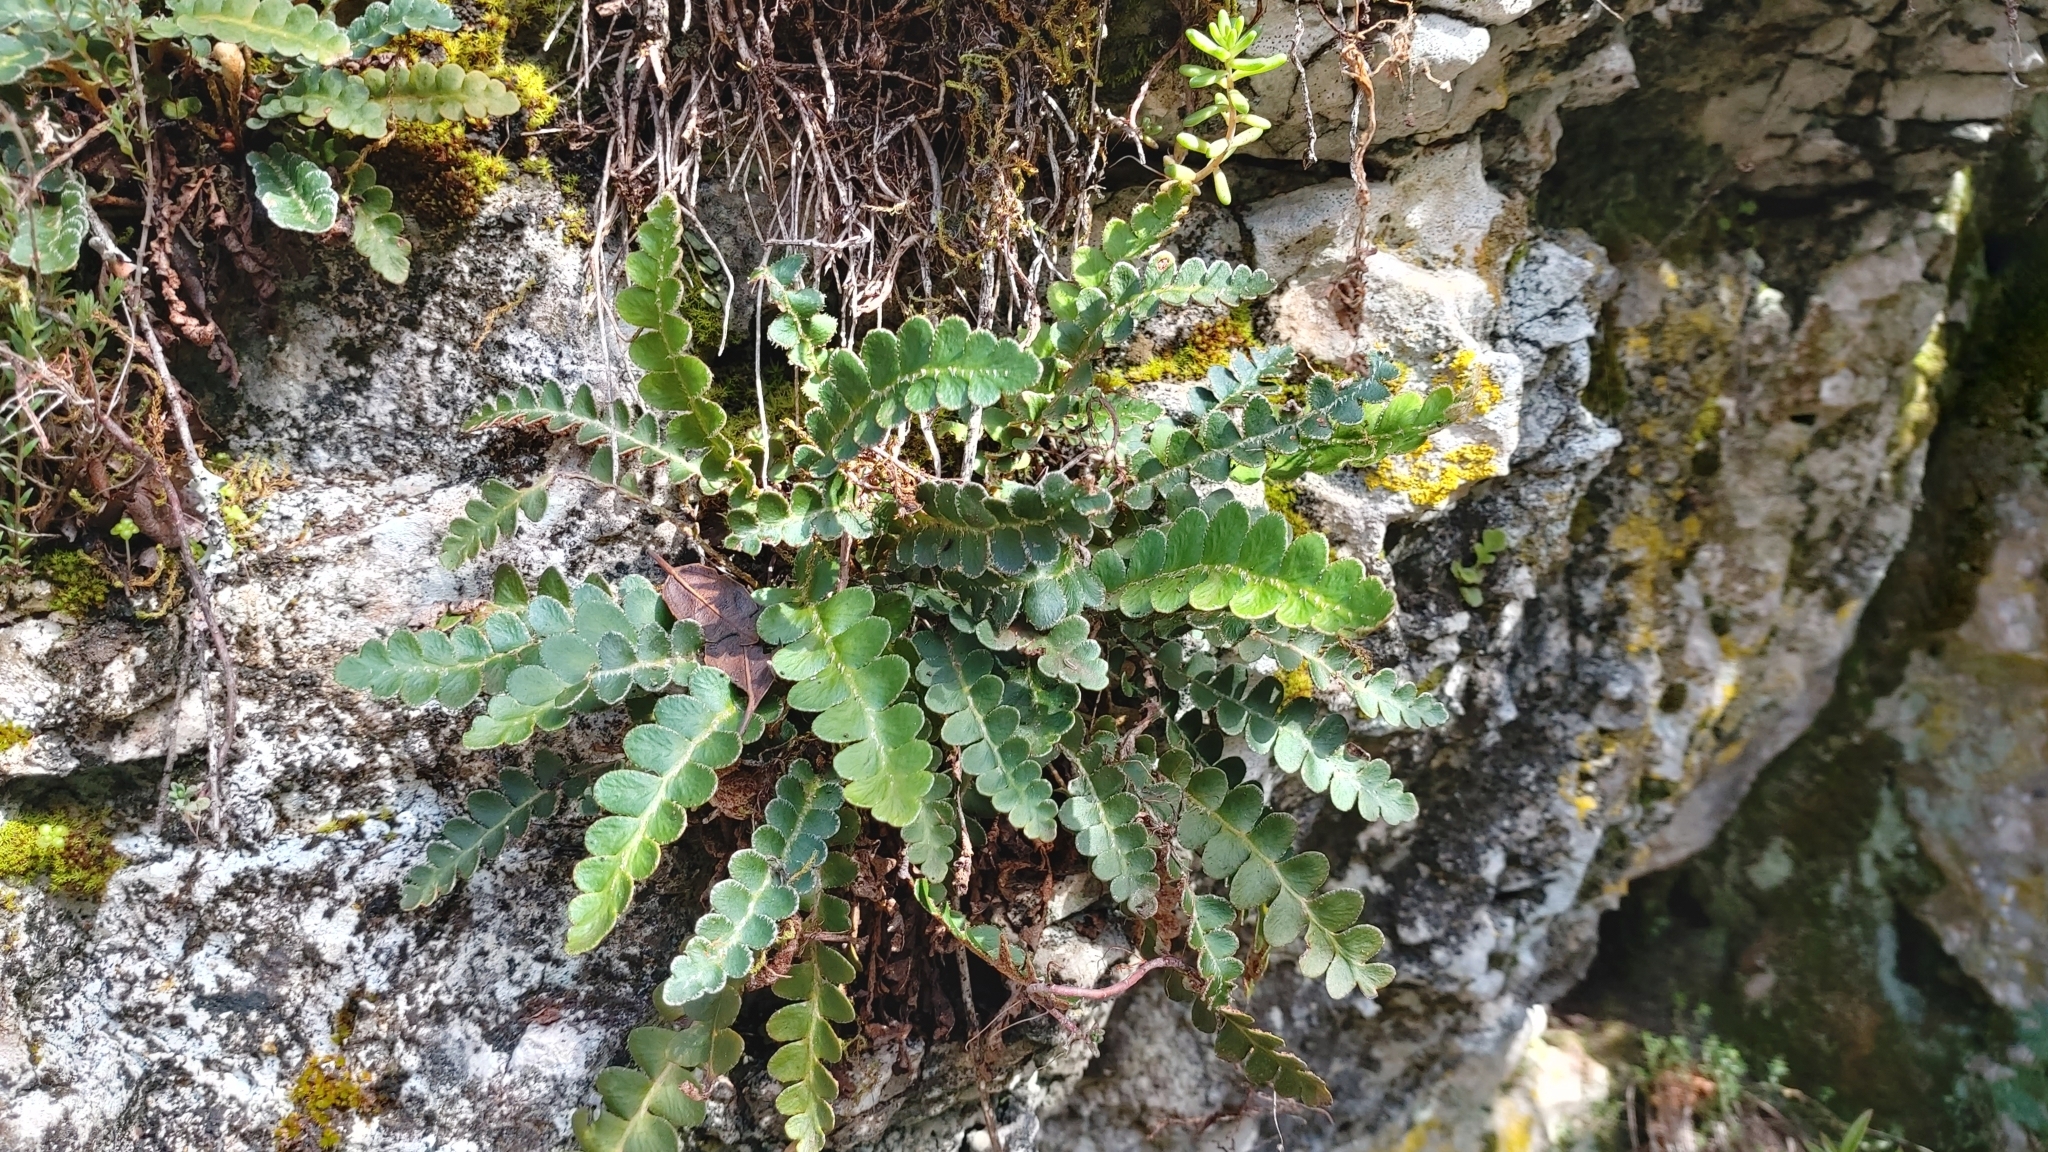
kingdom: Plantae
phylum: Tracheophyta
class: Polypodiopsida
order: Polypodiales
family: Aspleniaceae
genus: Asplenium
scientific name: Asplenium ceterach
